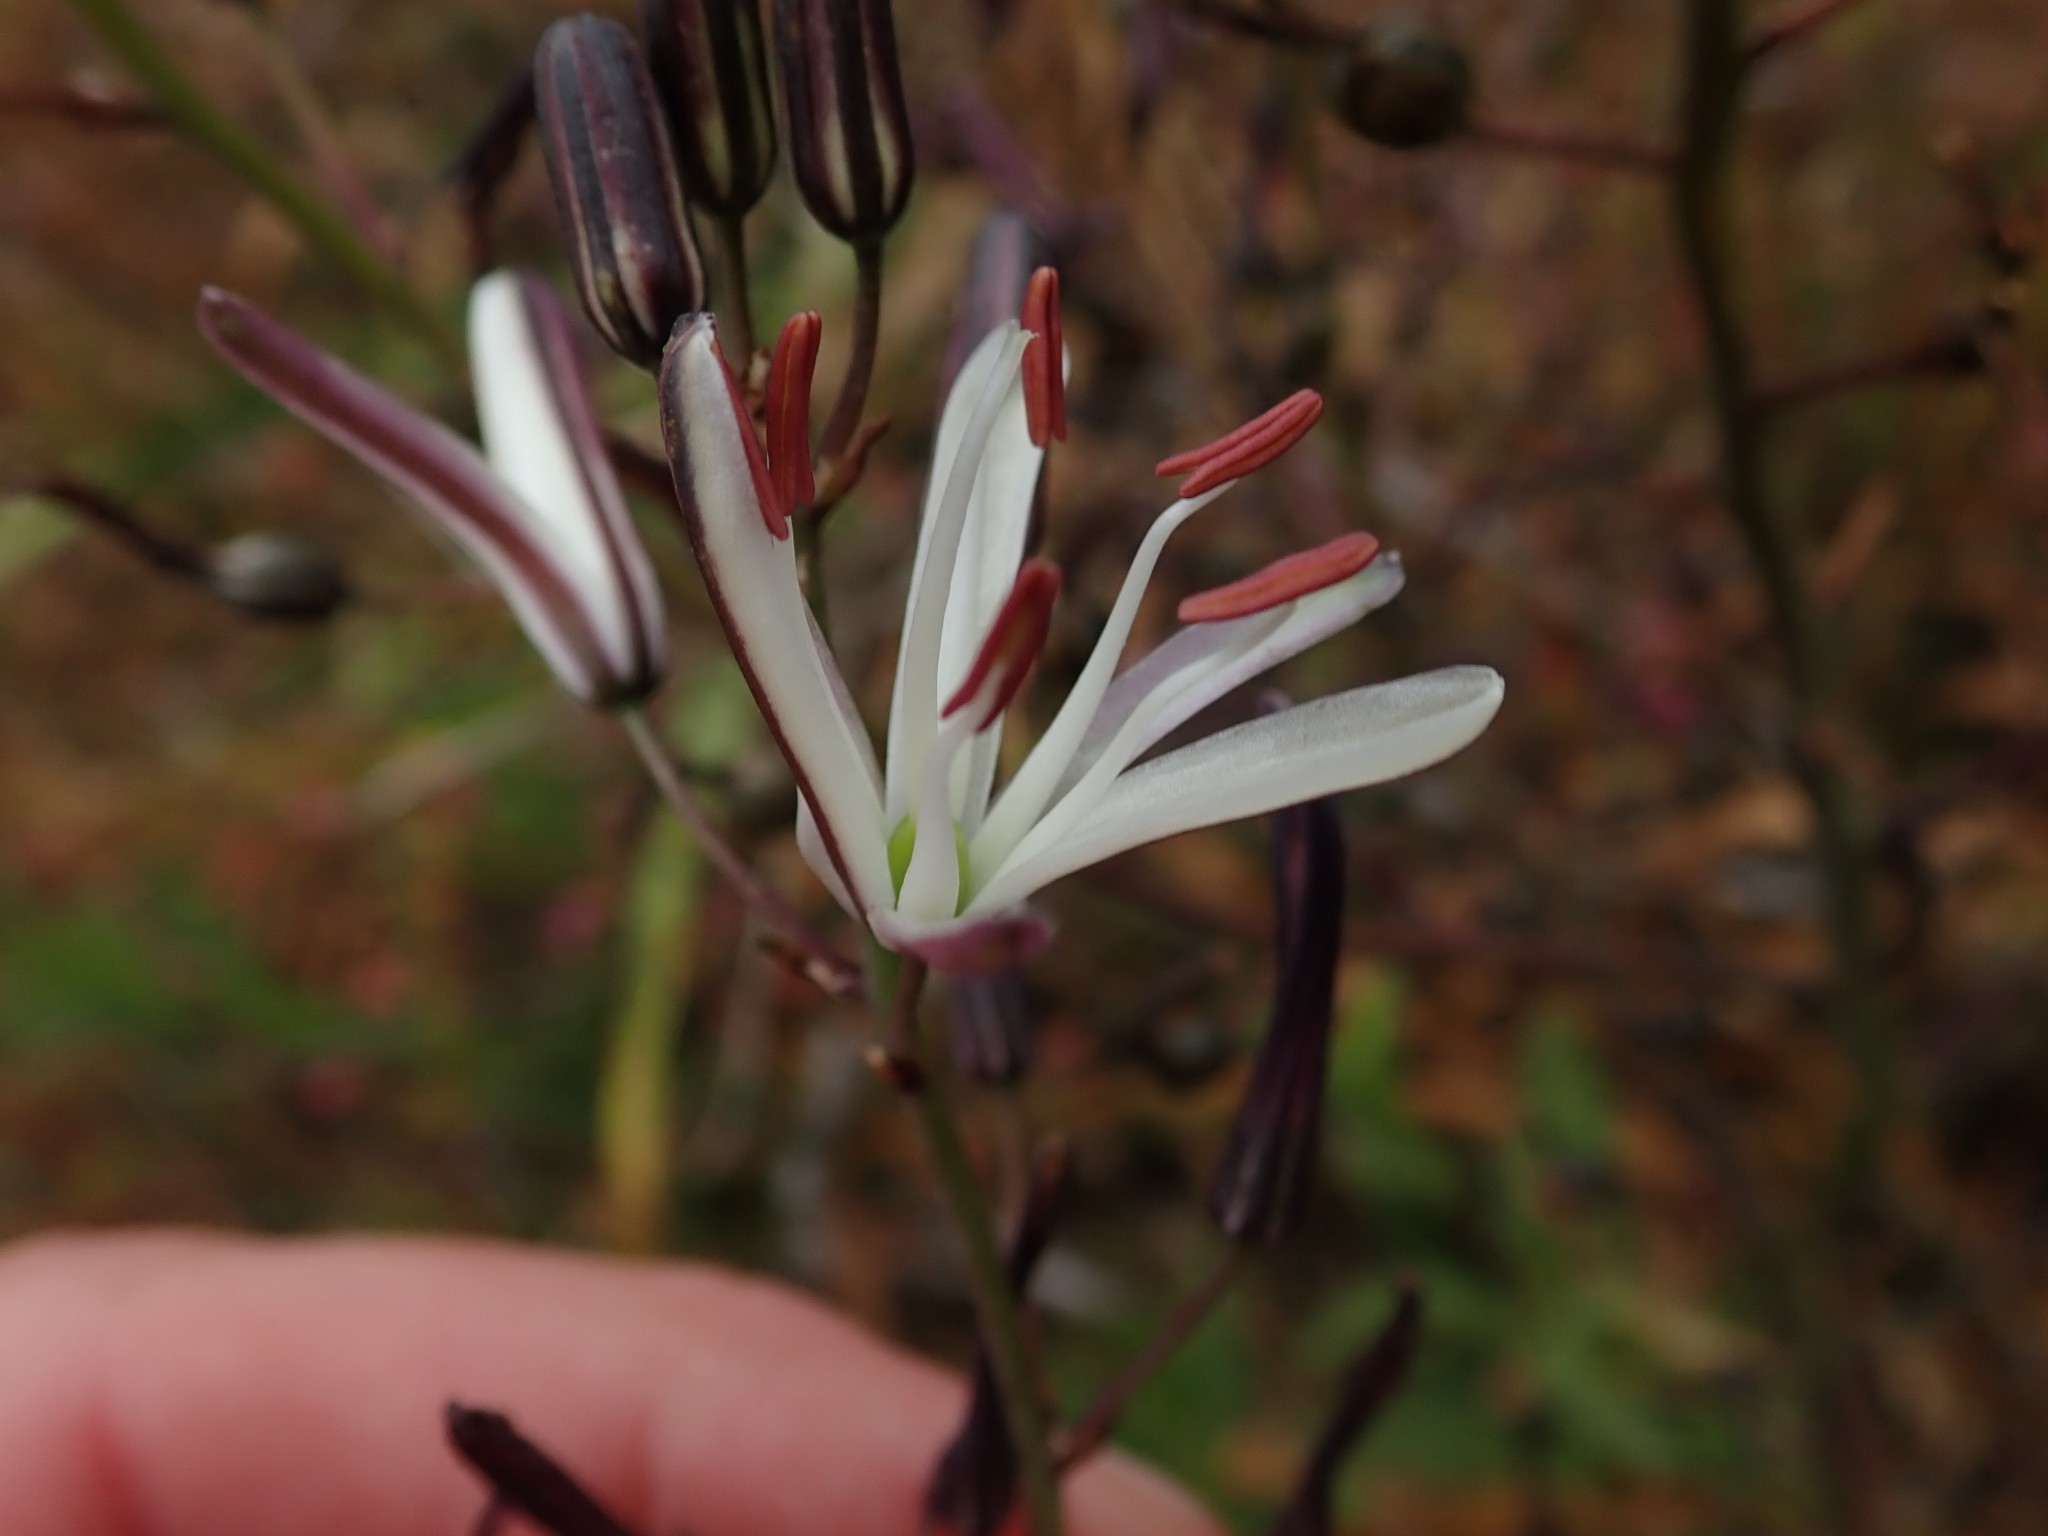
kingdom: Plantae
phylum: Tracheophyta
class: Liliopsida
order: Asparagales
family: Asparagaceae
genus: Chlorogalum
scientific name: Chlorogalum pomeridianum
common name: Amole
